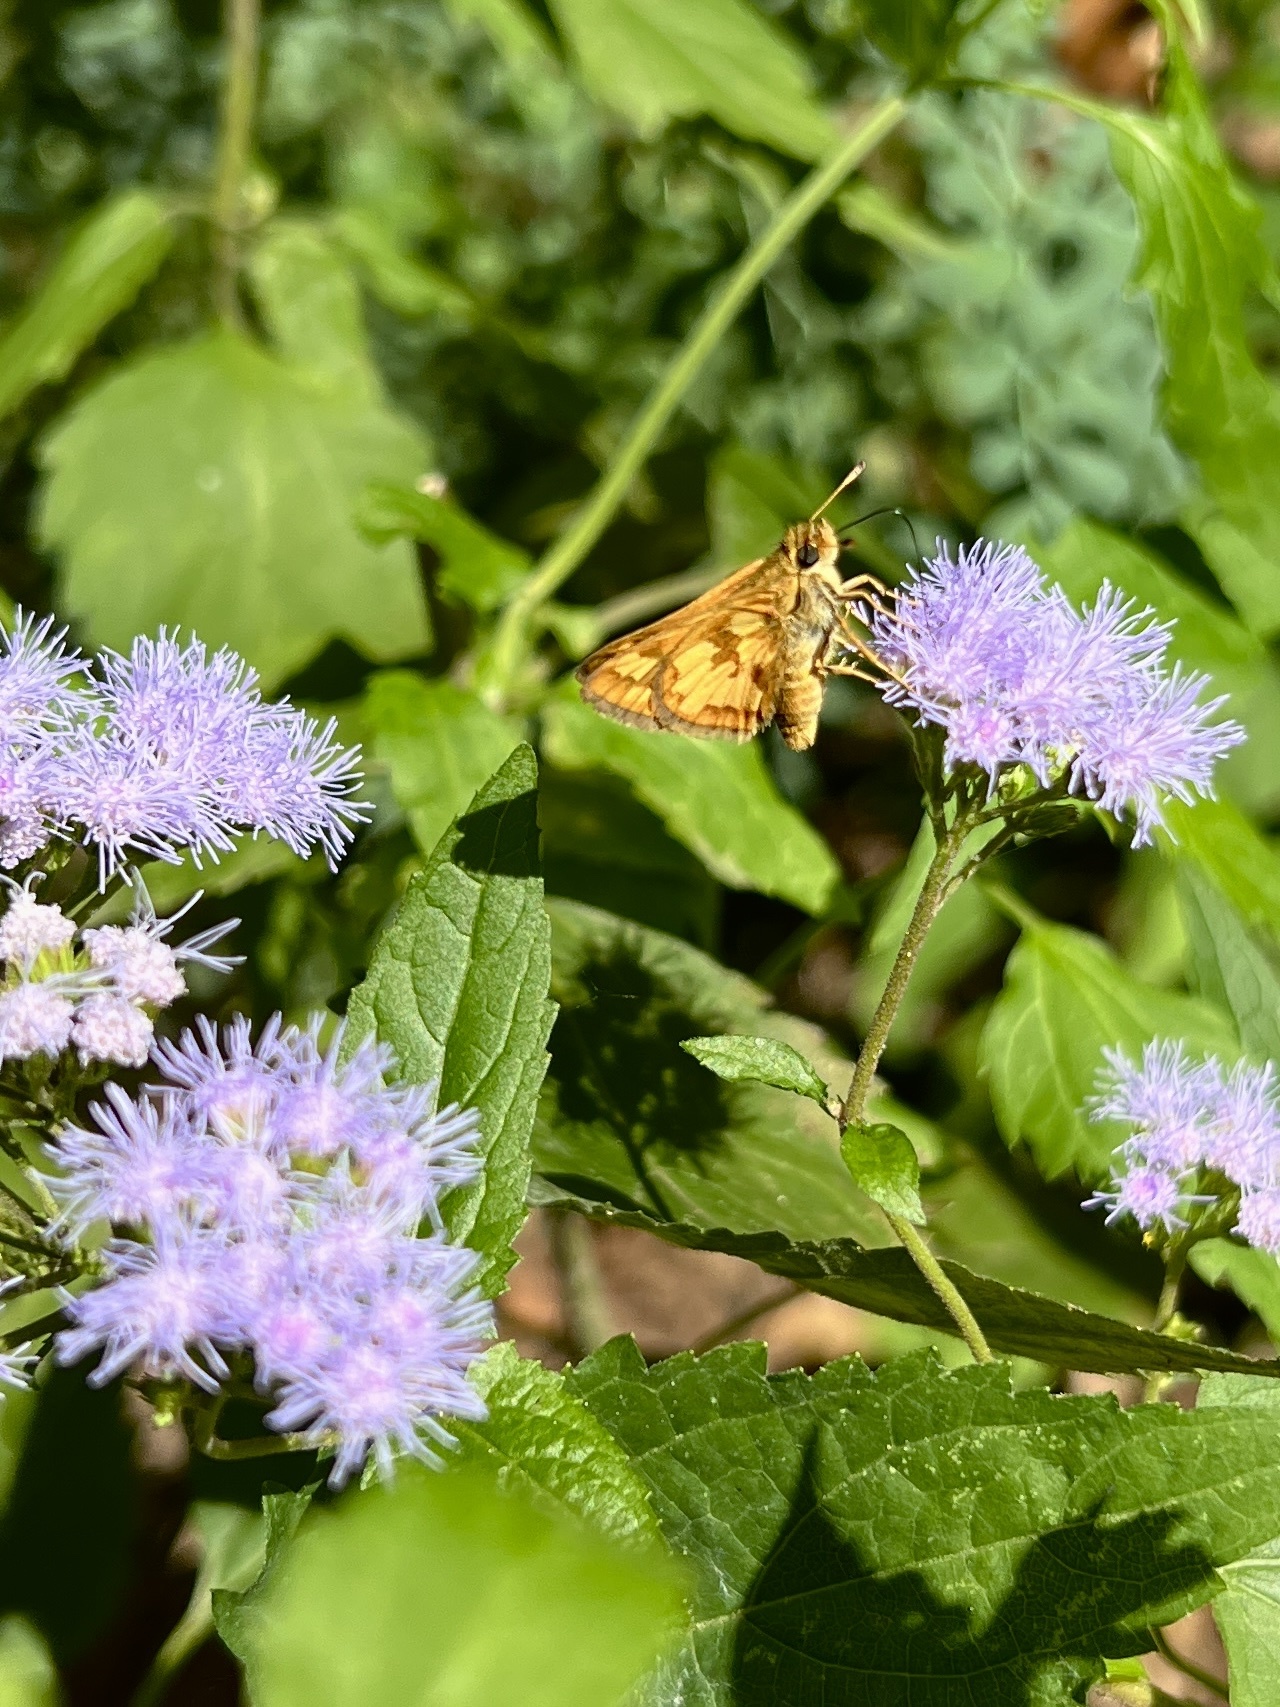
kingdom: Animalia
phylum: Arthropoda
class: Insecta
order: Lepidoptera
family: Hesperiidae
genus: Polites
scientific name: Polites coras
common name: Peck's skipper
